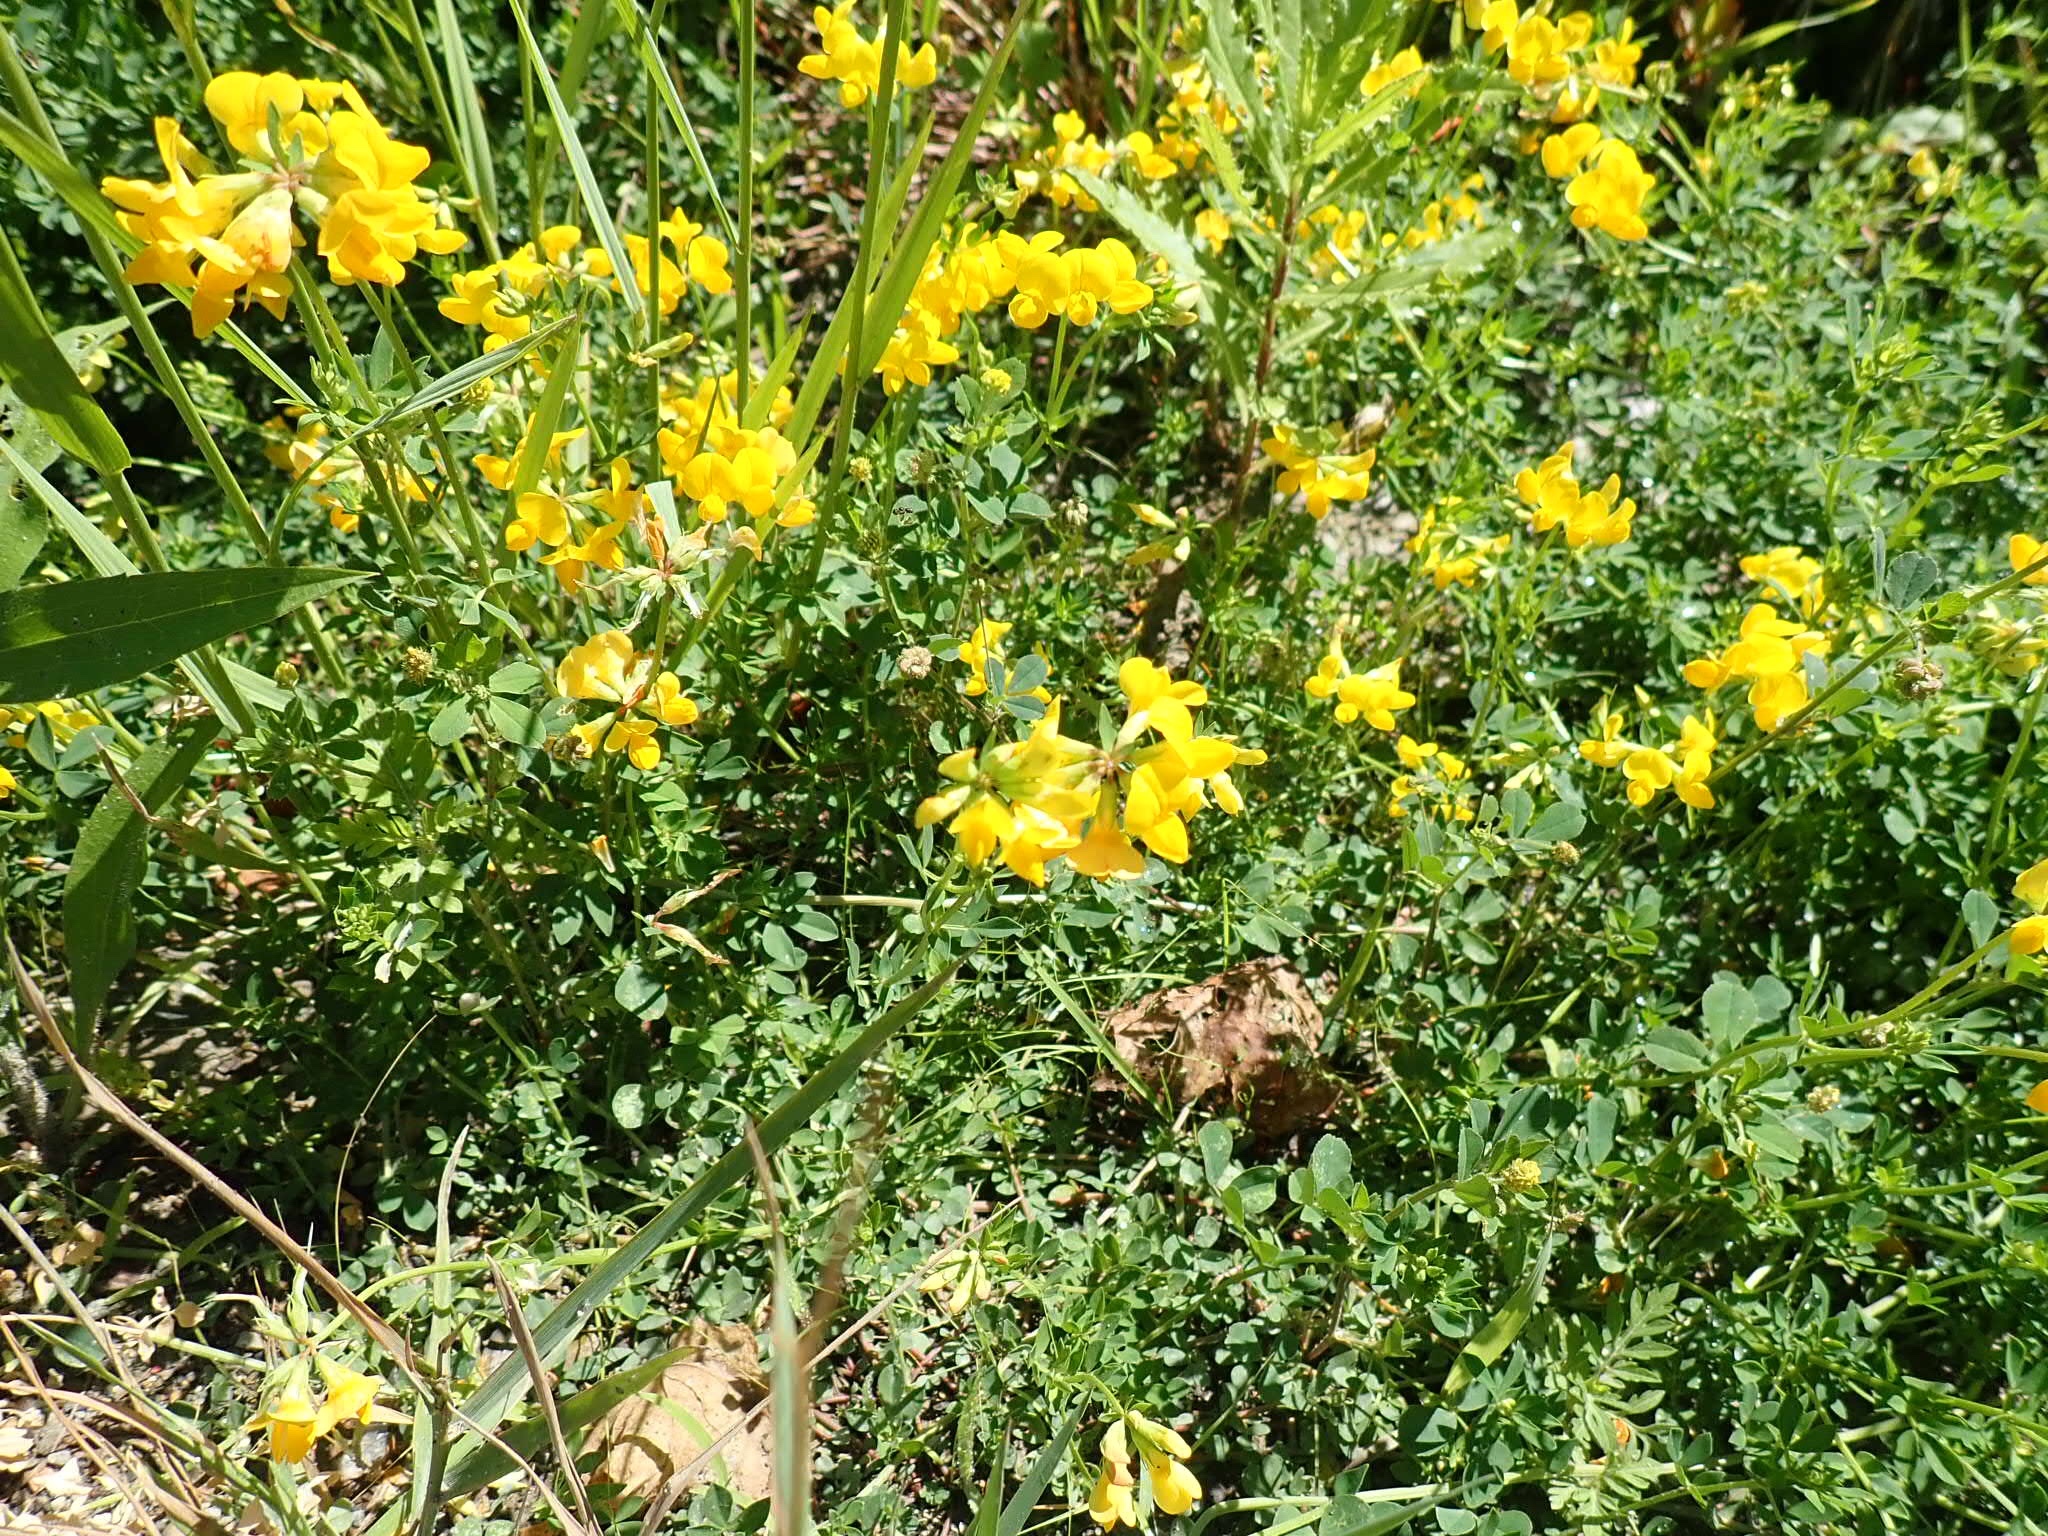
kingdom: Plantae
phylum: Tracheophyta
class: Magnoliopsida
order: Fabales
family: Fabaceae
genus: Lotus
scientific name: Lotus corniculatus
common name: Common bird's-foot-trefoil
